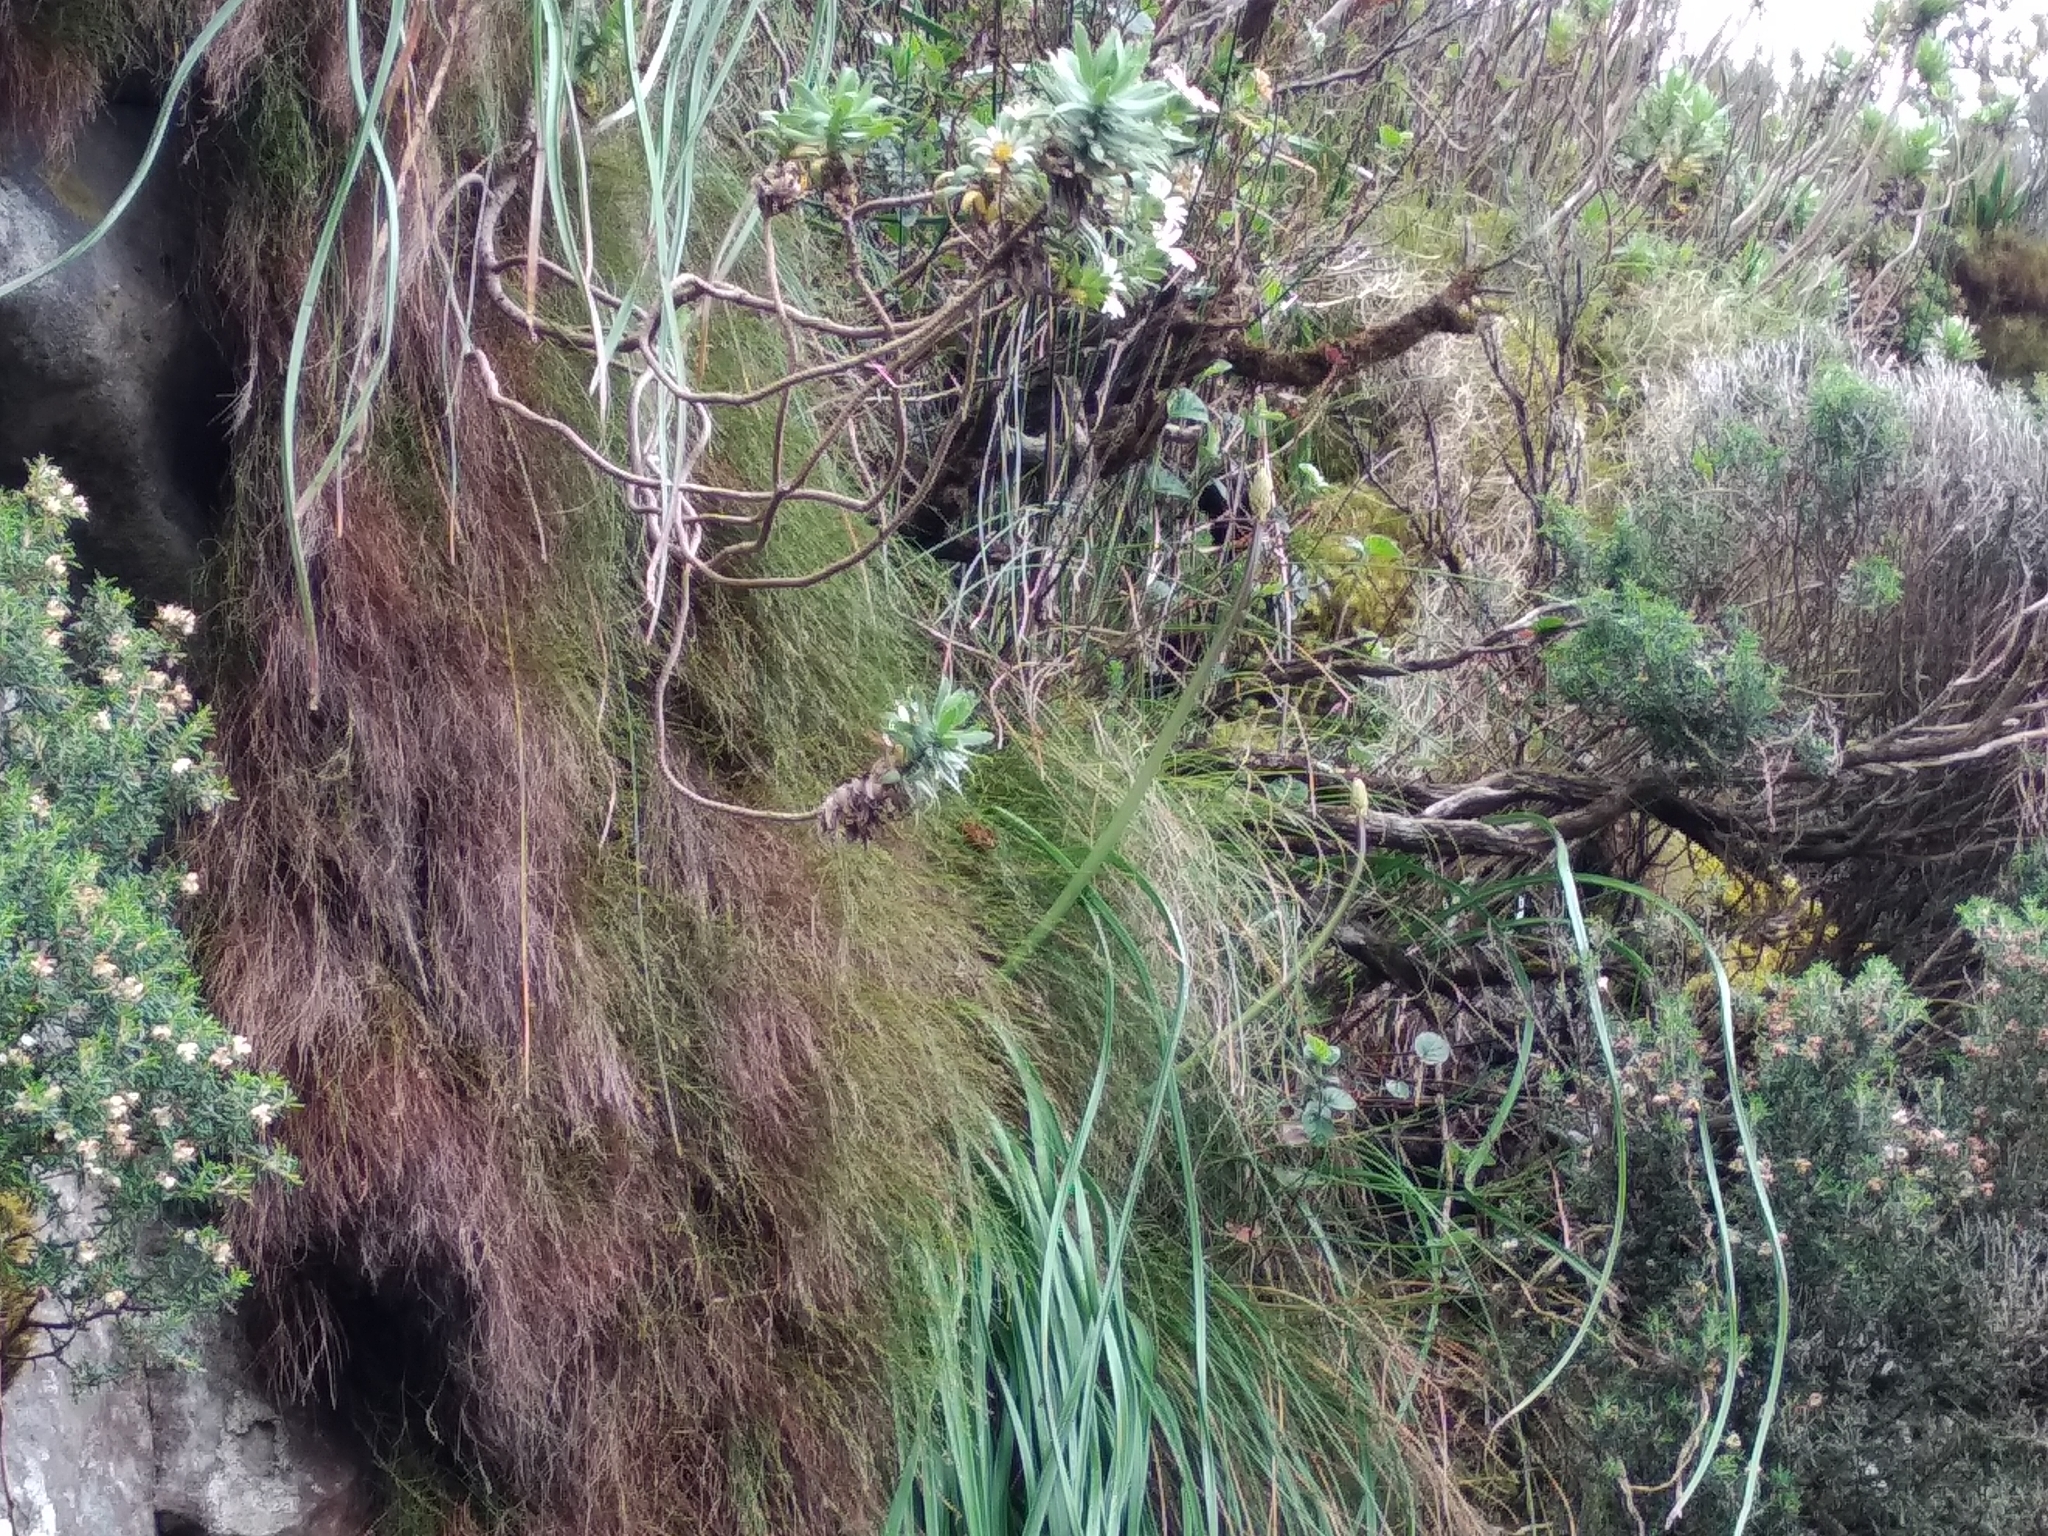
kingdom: Plantae
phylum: Tracheophyta
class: Liliopsida
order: Asparagales
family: Asphodelaceae
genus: Trachyandra
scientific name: Trachyandra tabularis
